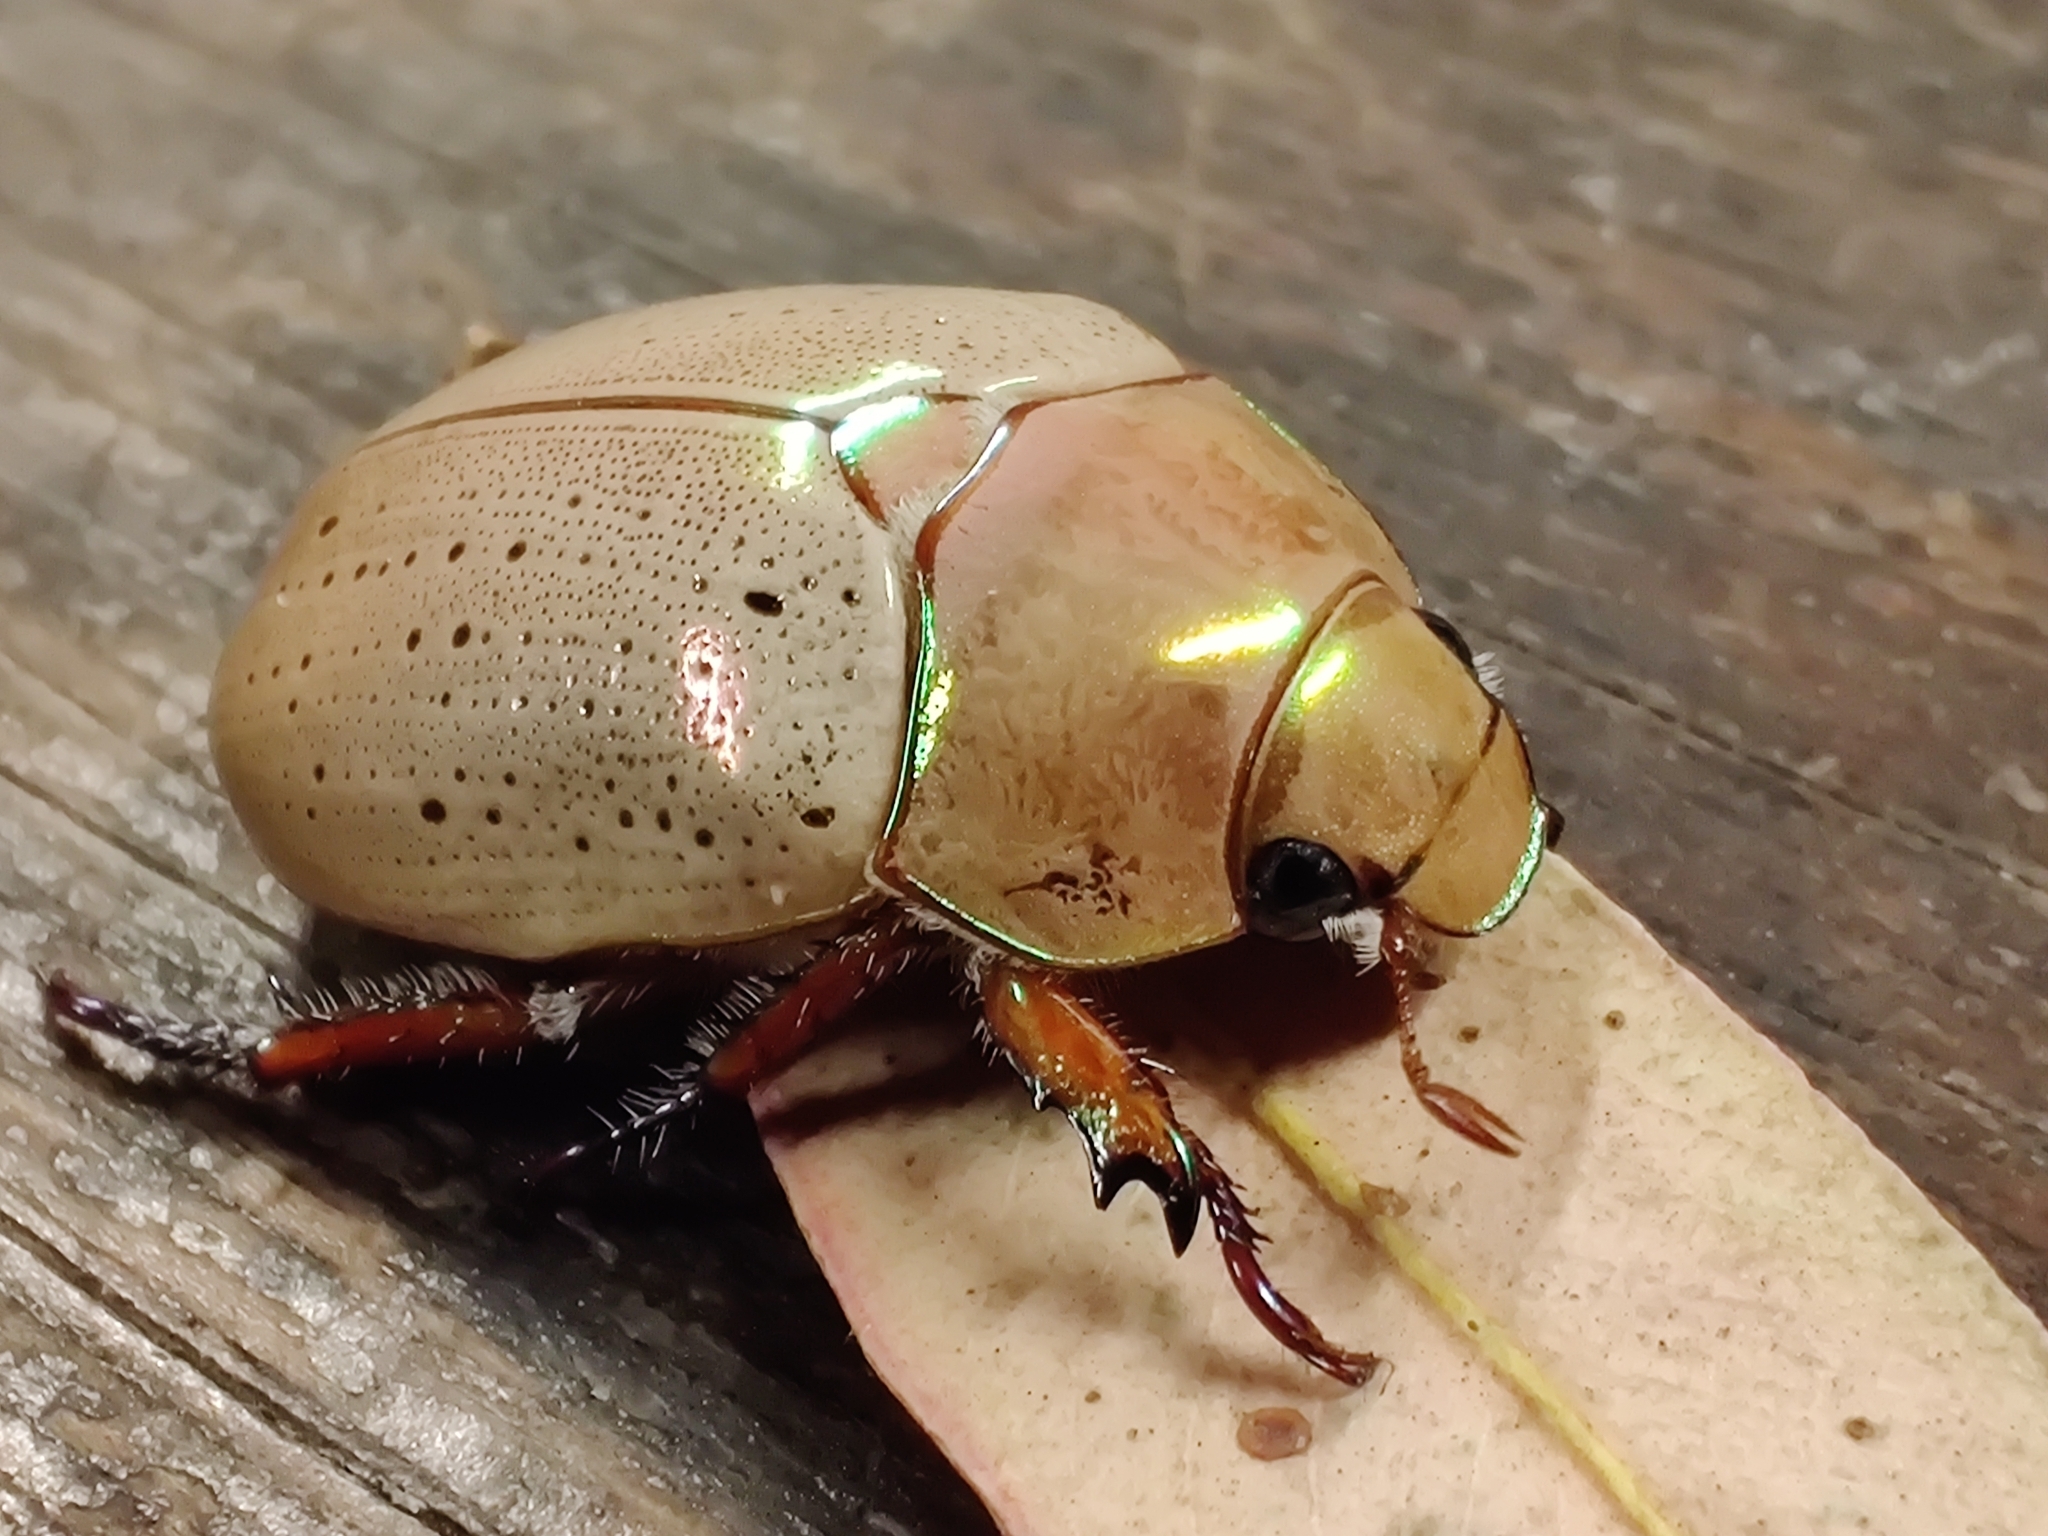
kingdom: Animalia
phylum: Arthropoda
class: Insecta
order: Coleoptera
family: Scarabaeidae
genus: Anoplognathus
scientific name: Anoplognathus porosus
